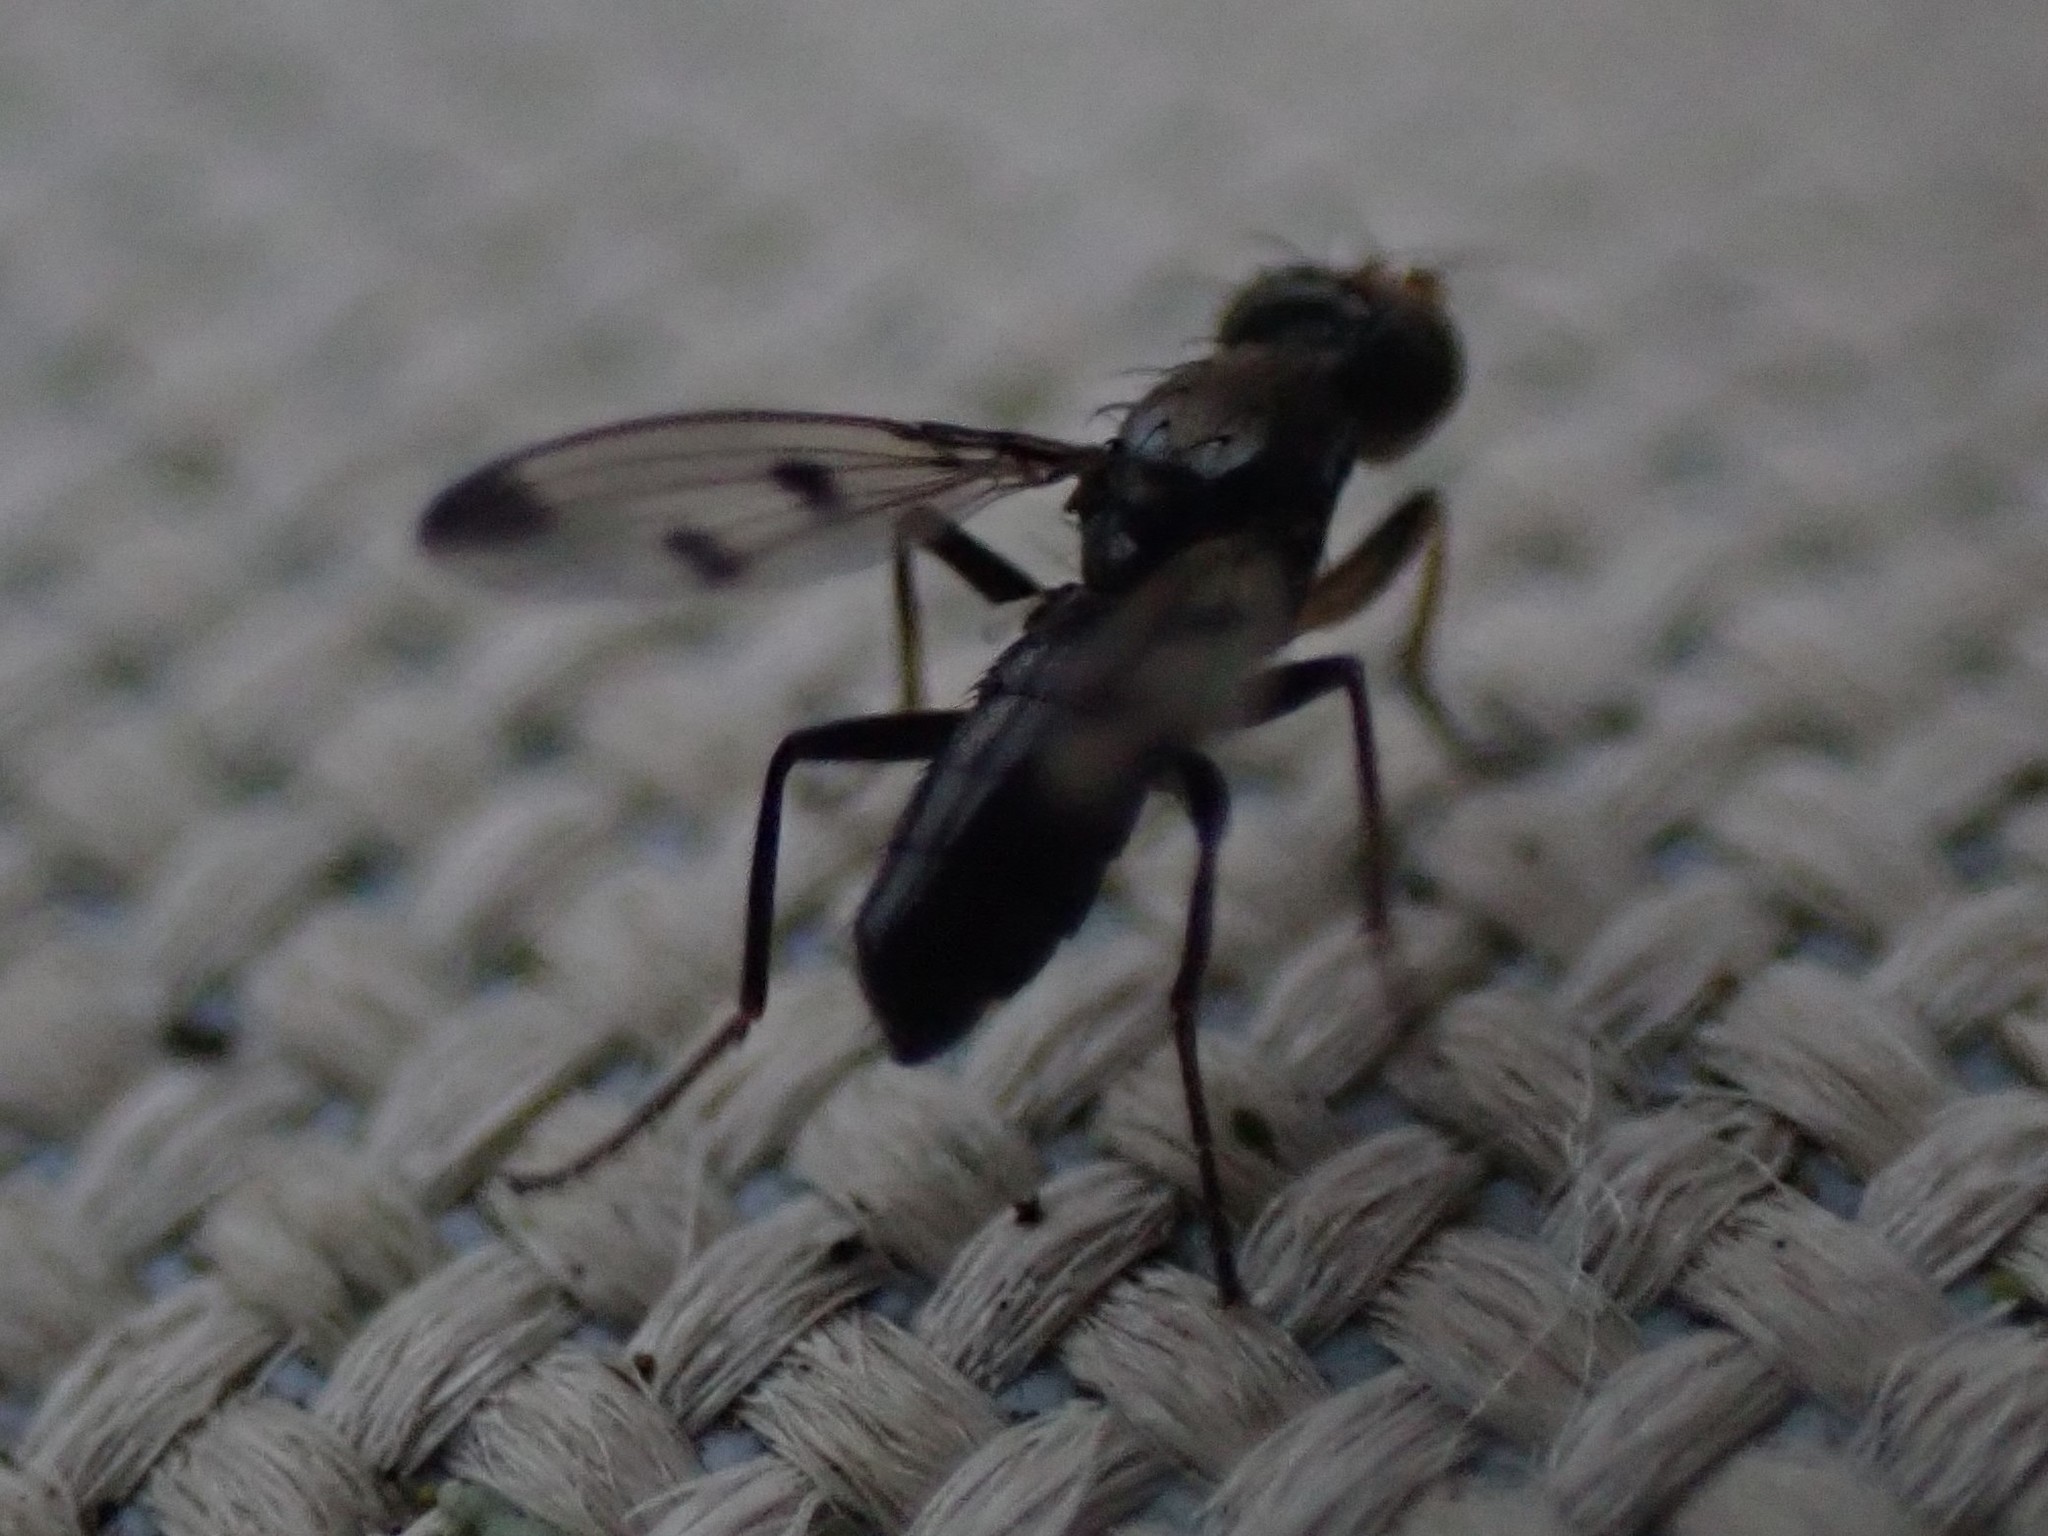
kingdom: Animalia
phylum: Arthropoda
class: Insecta
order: Diptera
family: Opomyzidae
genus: Geomyza
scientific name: Geomyza tripunctata
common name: Cereal fly
